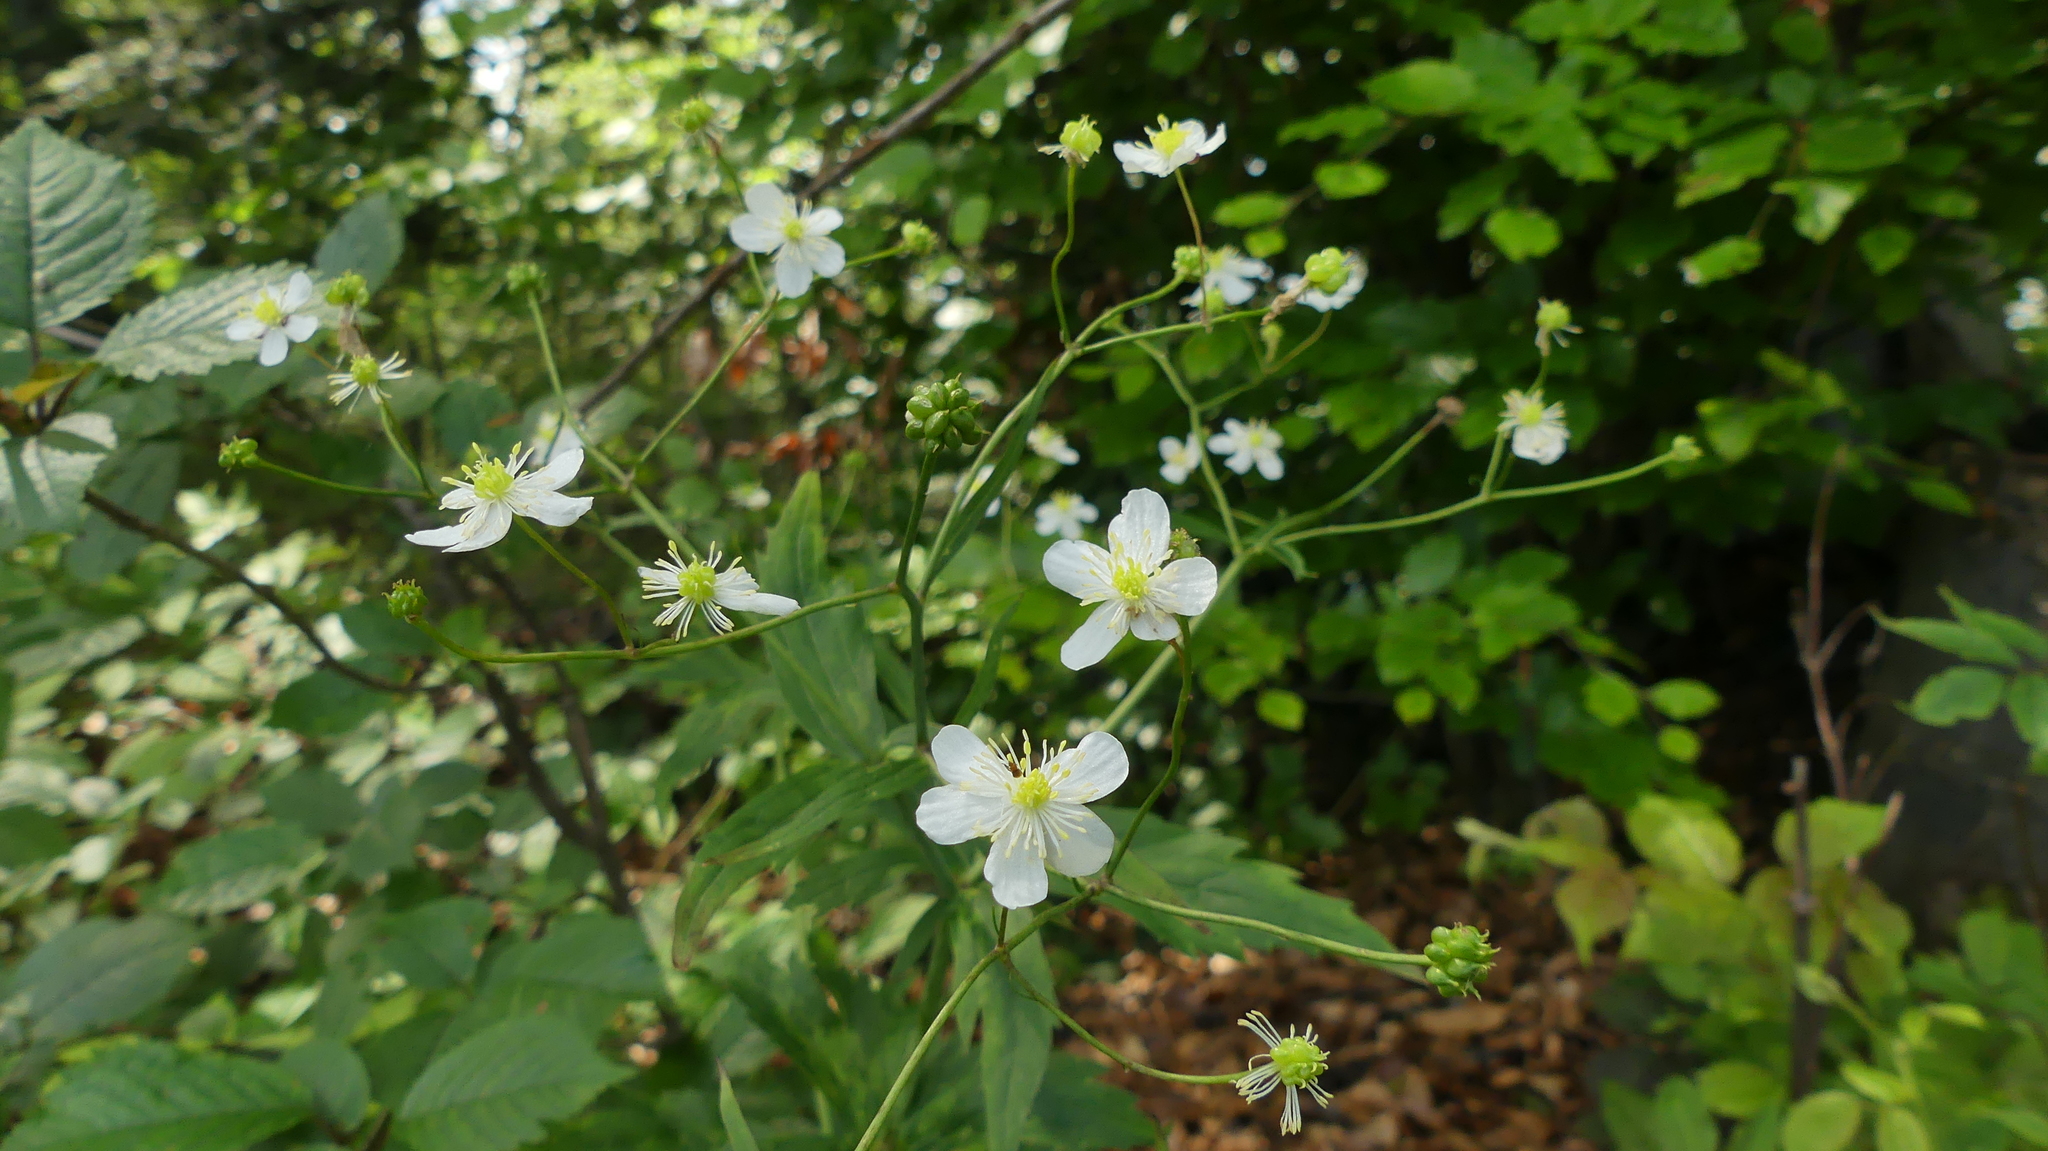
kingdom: Plantae
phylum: Tracheophyta
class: Magnoliopsida
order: Ranunculales
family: Ranunculaceae
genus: Ranunculus
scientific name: Ranunculus platanifolius
